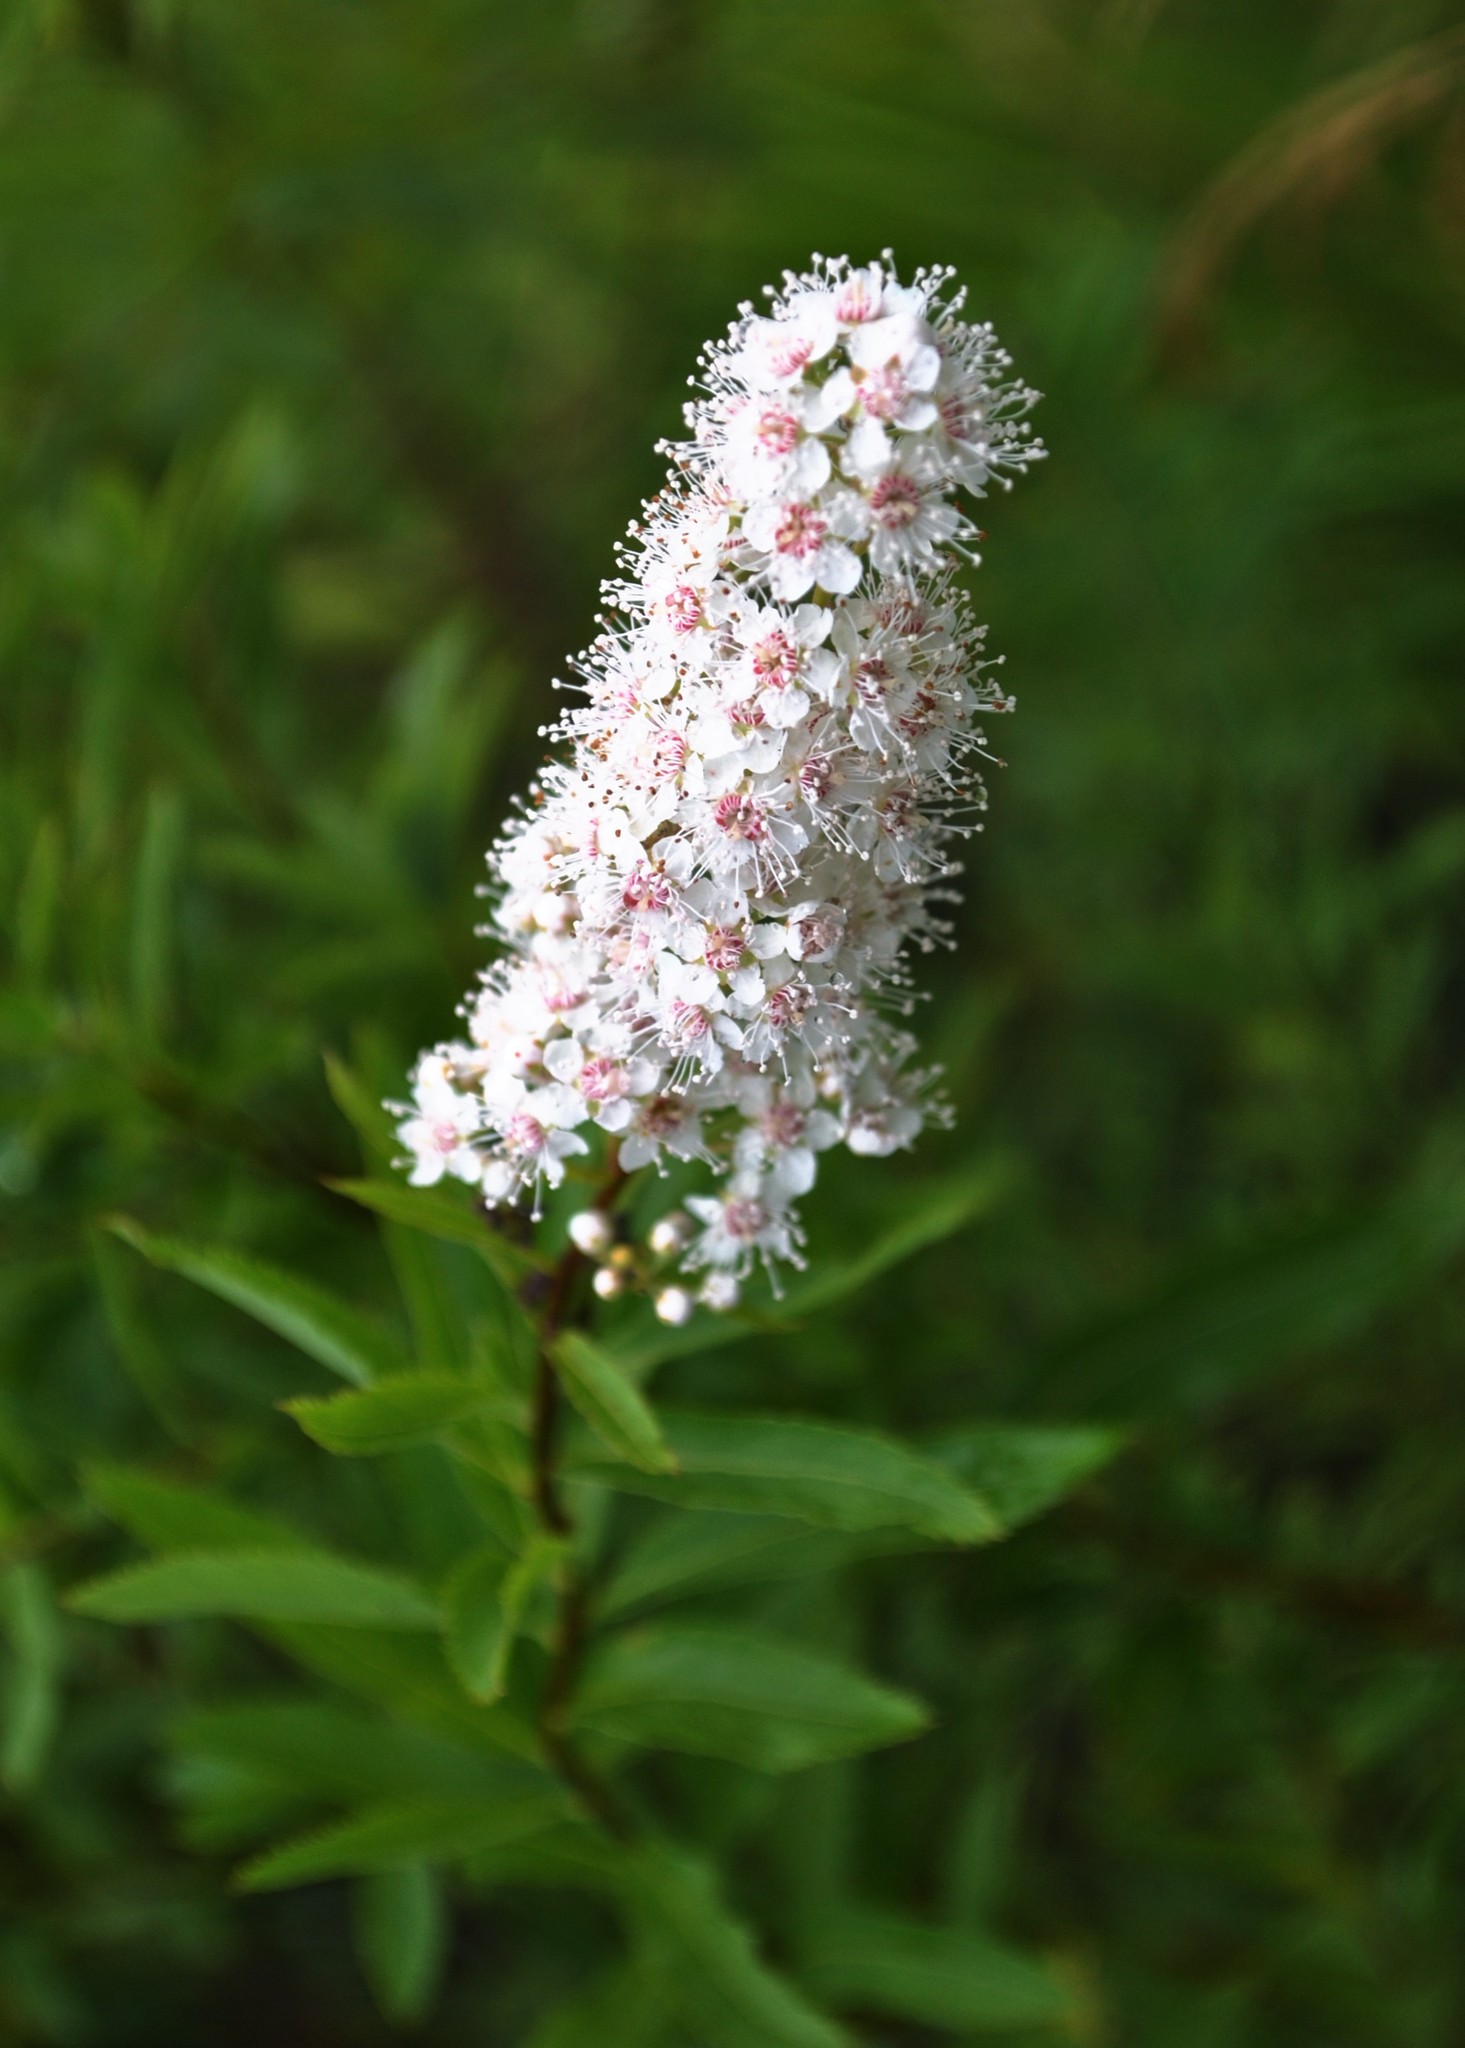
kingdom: Plantae
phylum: Tracheophyta
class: Magnoliopsida
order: Rosales
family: Rosaceae
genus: Spiraea
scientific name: Spiraea alba
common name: Pale bridewort
